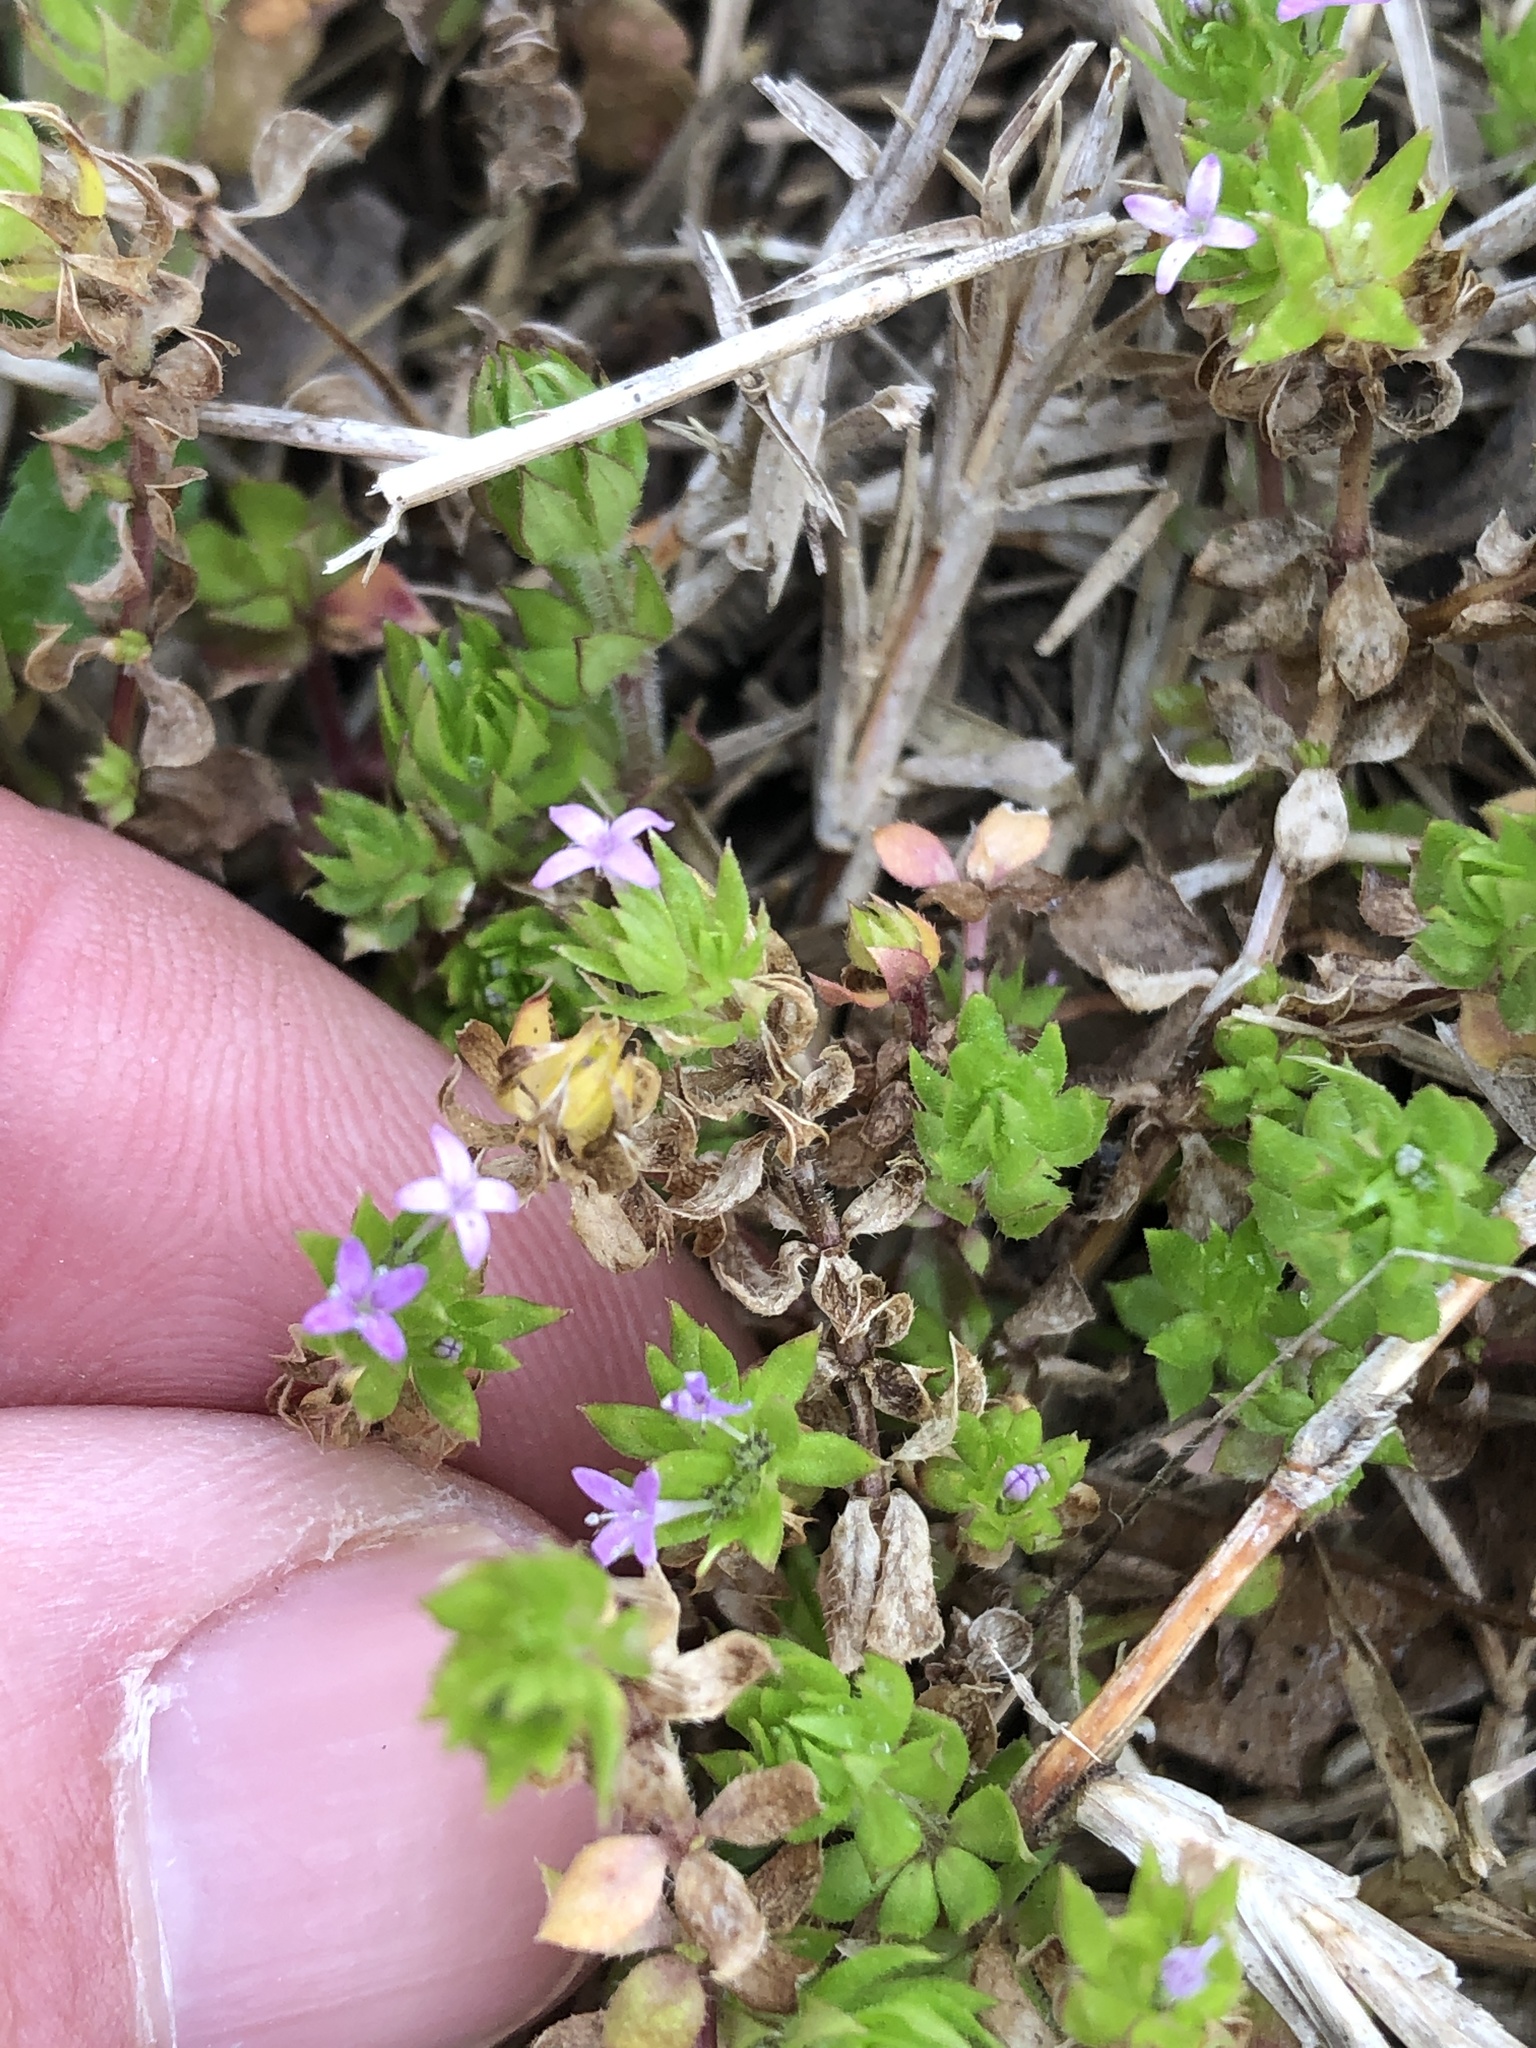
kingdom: Plantae
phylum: Tracheophyta
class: Magnoliopsida
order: Gentianales
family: Rubiaceae
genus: Sherardia
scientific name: Sherardia arvensis
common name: Field madder
